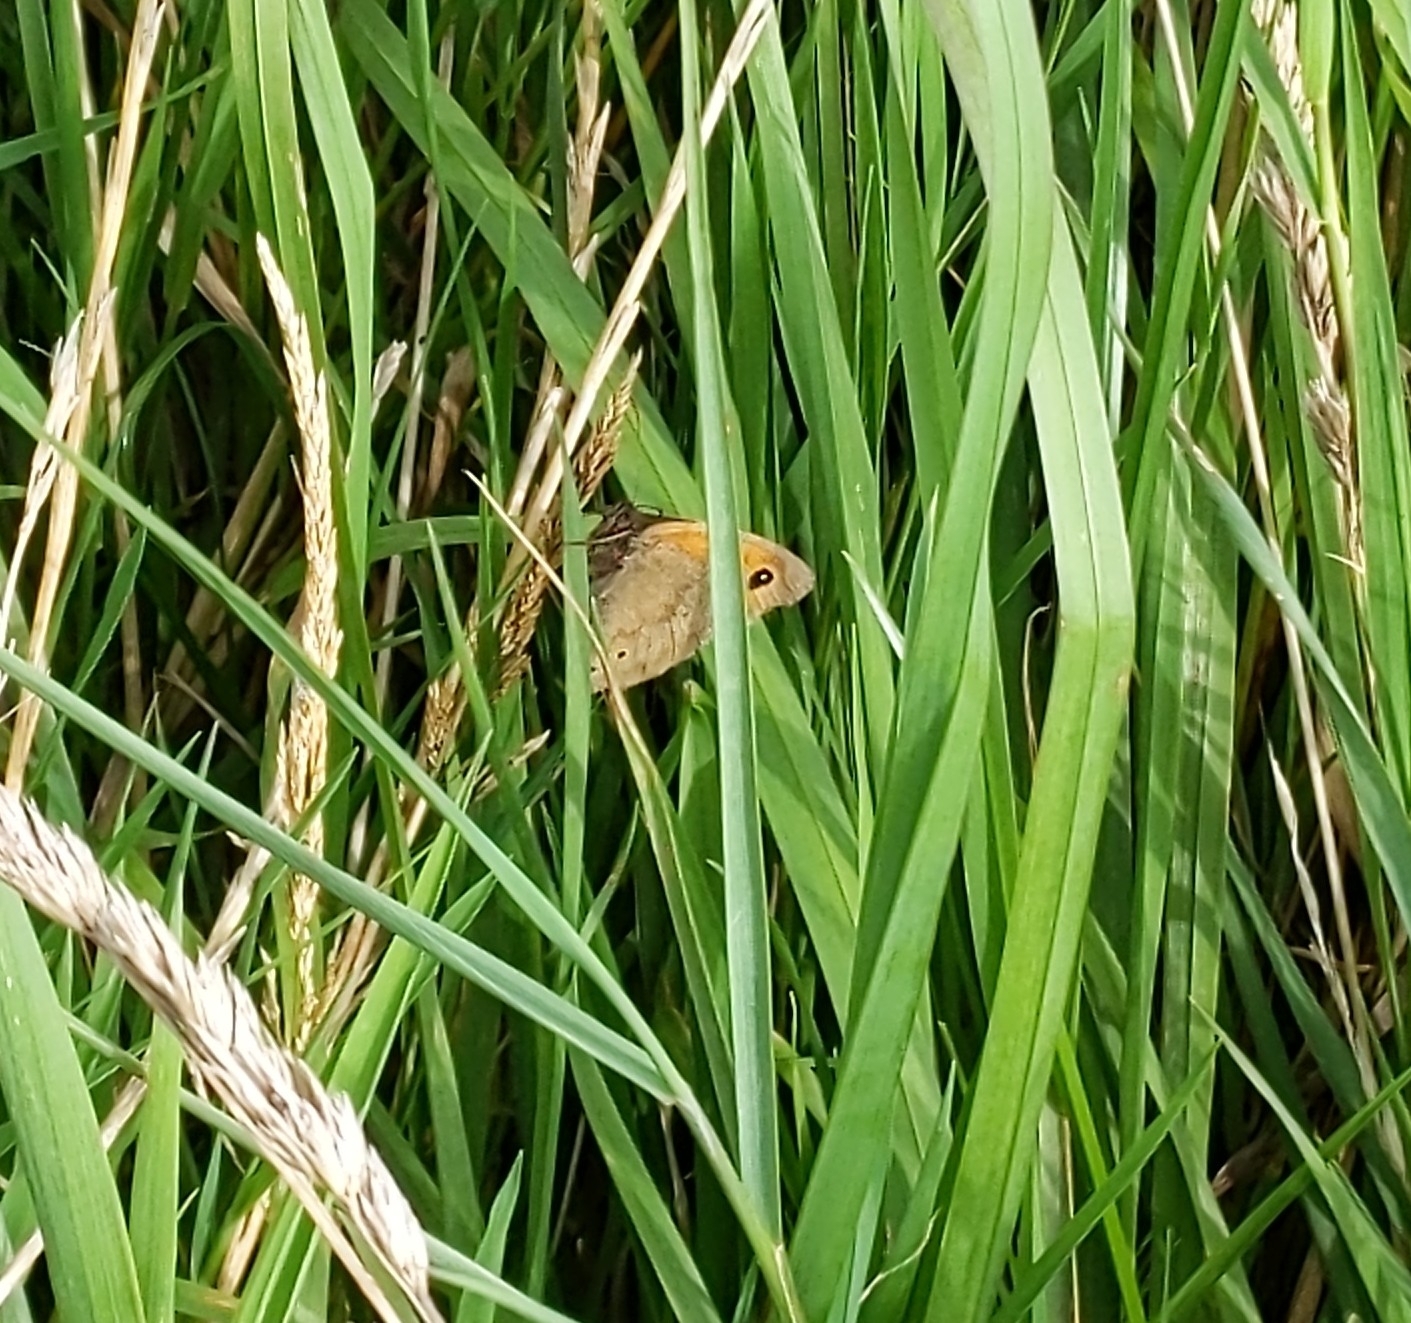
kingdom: Animalia
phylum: Arthropoda
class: Insecta
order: Lepidoptera
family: Nymphalidae
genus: Maniola
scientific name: Maniola jurtina
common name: Meadow brown
